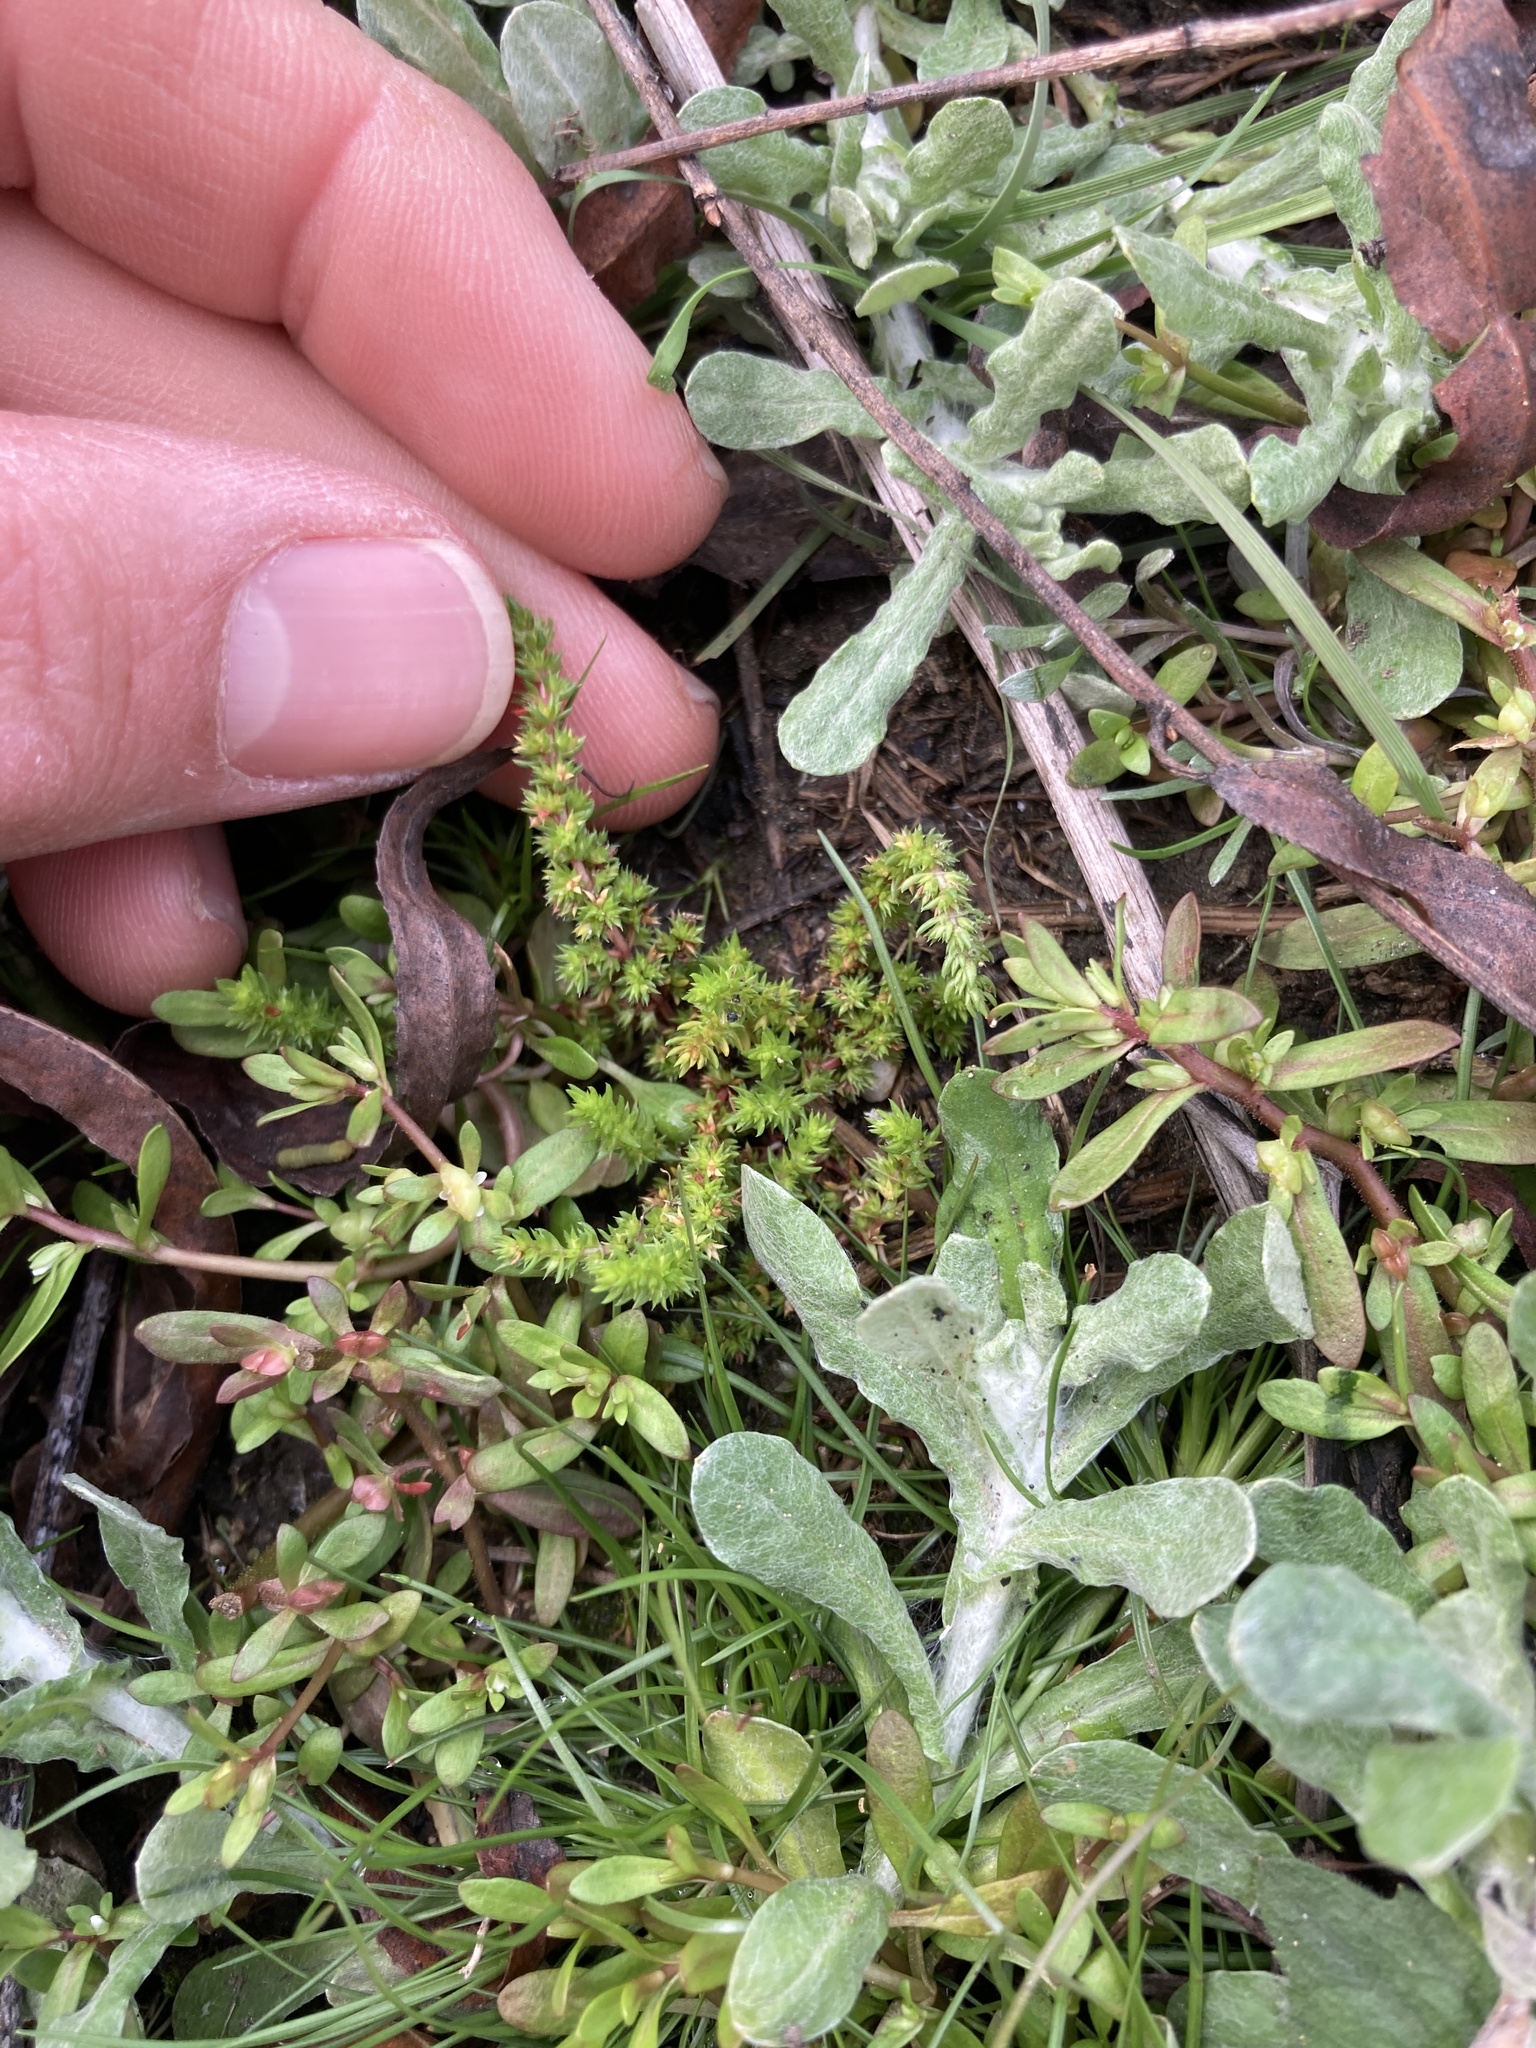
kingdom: Plantae
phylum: Tracheophyta
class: Magnoliopsida
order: Saxifragales
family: Crassulaceae
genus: Crassula
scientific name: Crassula tillaea
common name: Mossy stonecrop
